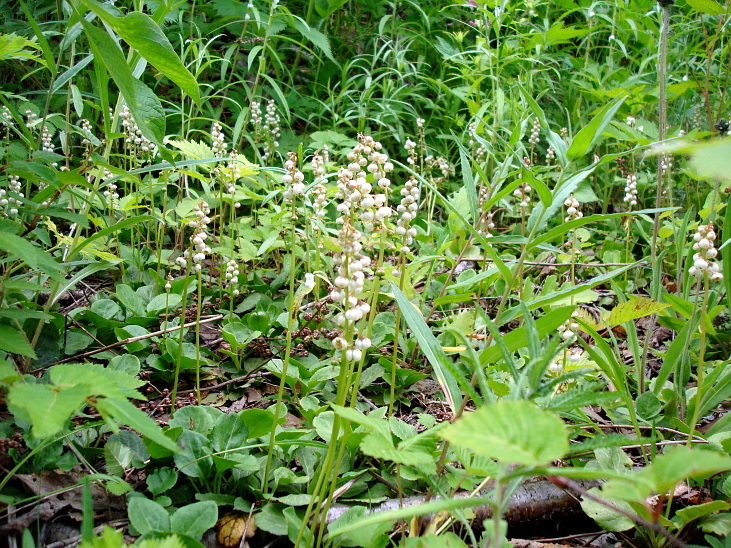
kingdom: Plantae
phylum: Tracheophyta
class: Magnoliopsida
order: Ericales
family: Ericaceae
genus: Pyrola
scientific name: Pyrola minor
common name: Common wintergreen
